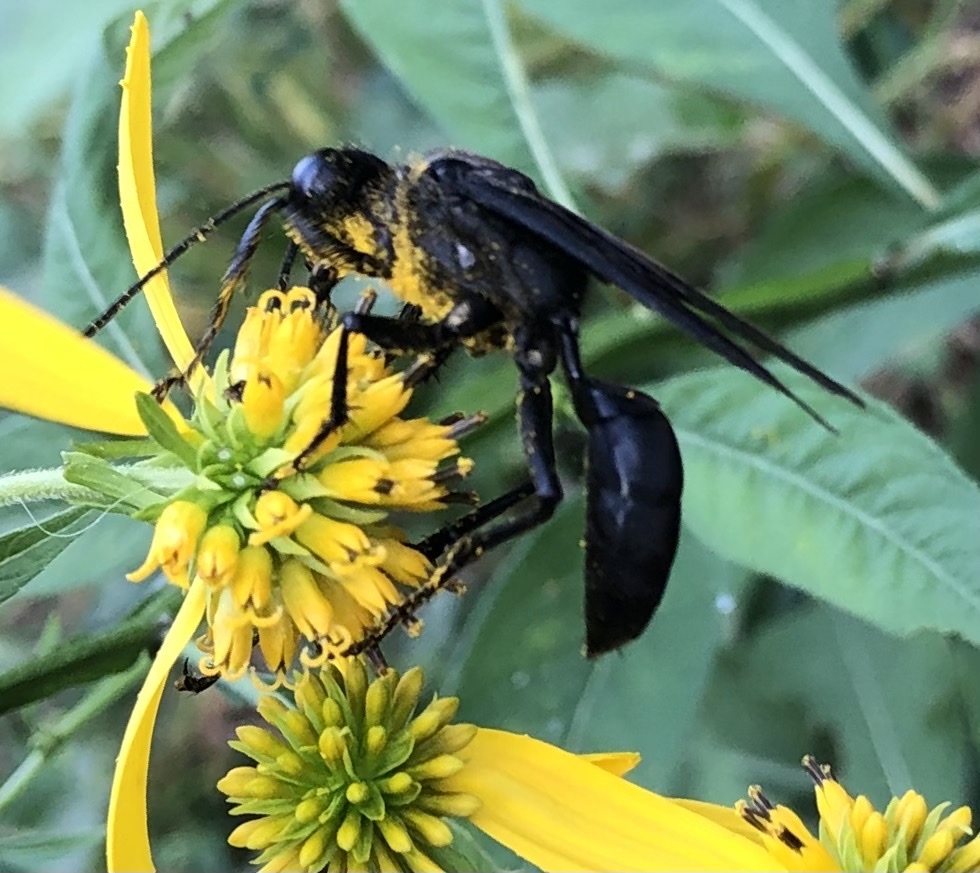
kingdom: Animalia
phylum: Arthropoda
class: Insecta
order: Hymenoptera
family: Sphecidae
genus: Sphex
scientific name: Sphex pensylvanicus
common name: Great black digger wasp
